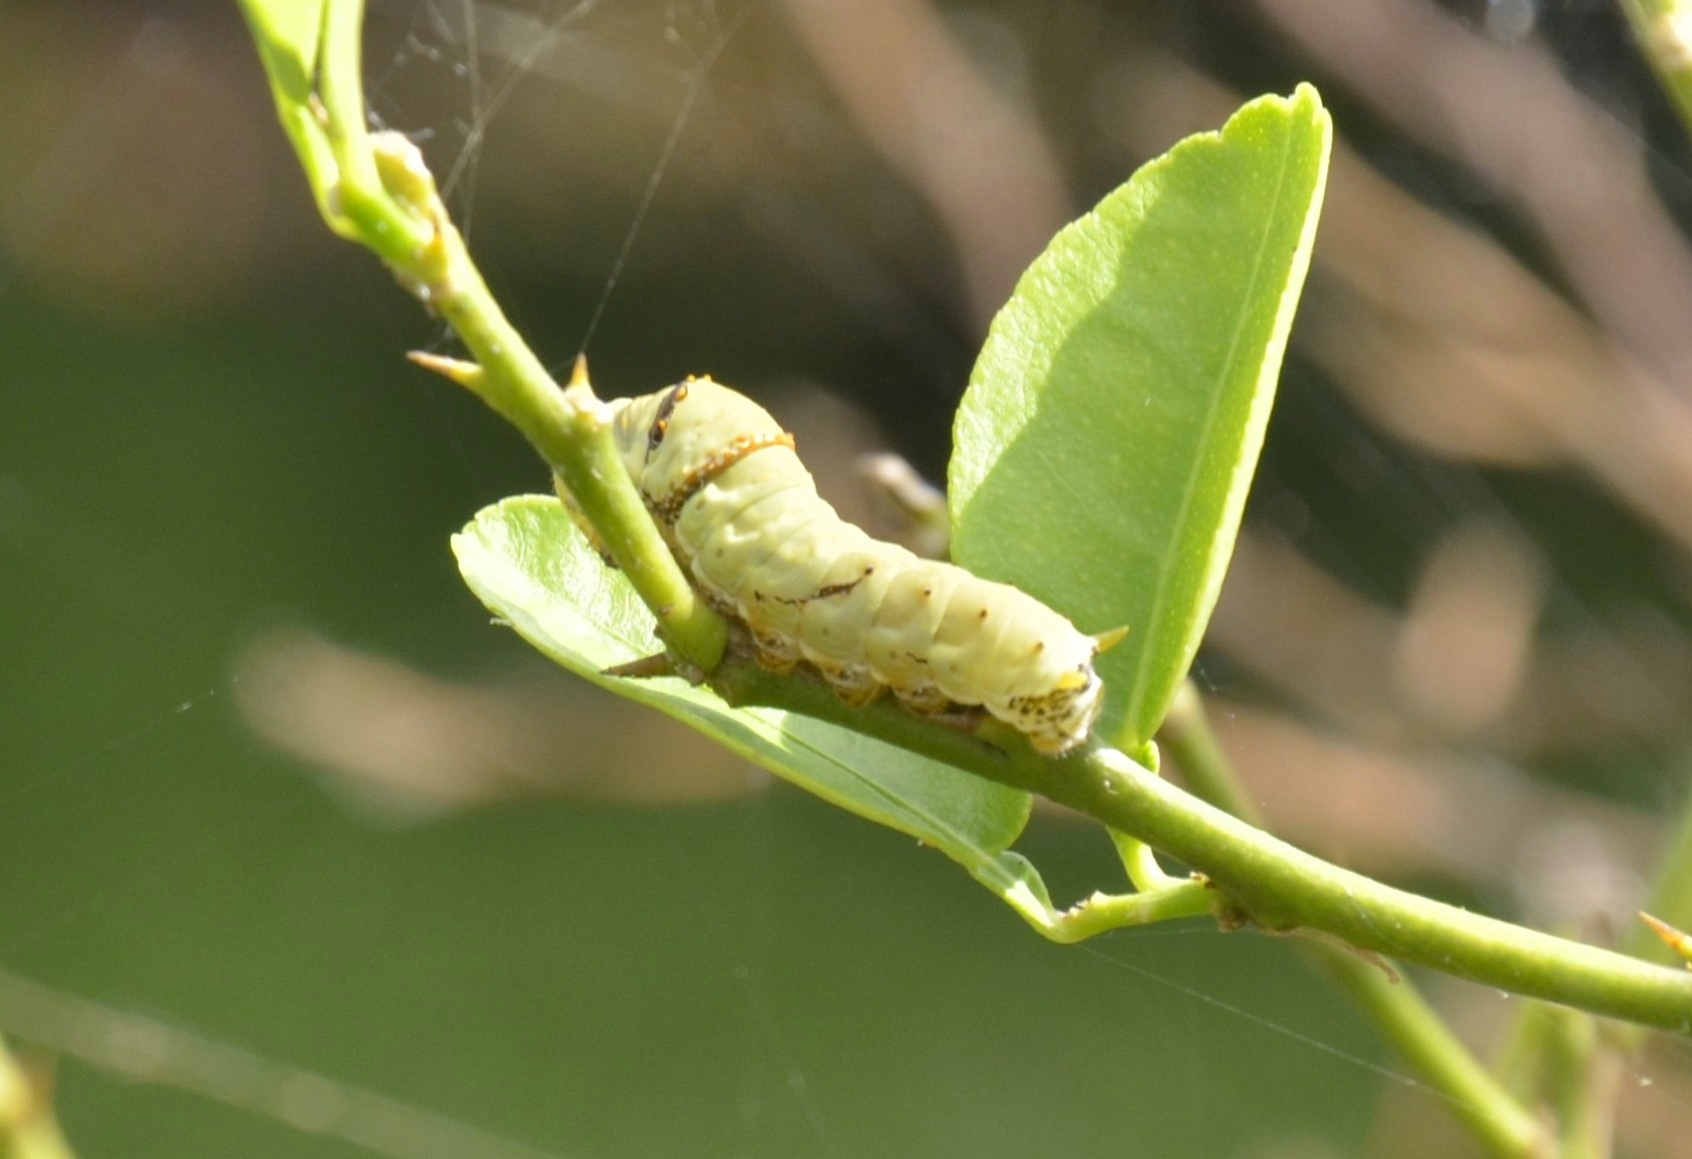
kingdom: Animalia
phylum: Arthropoda
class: Insecta
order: Lepidoptera
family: Papilionidae
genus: Papilio
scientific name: Papilio demoleus
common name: Lime butterfly
